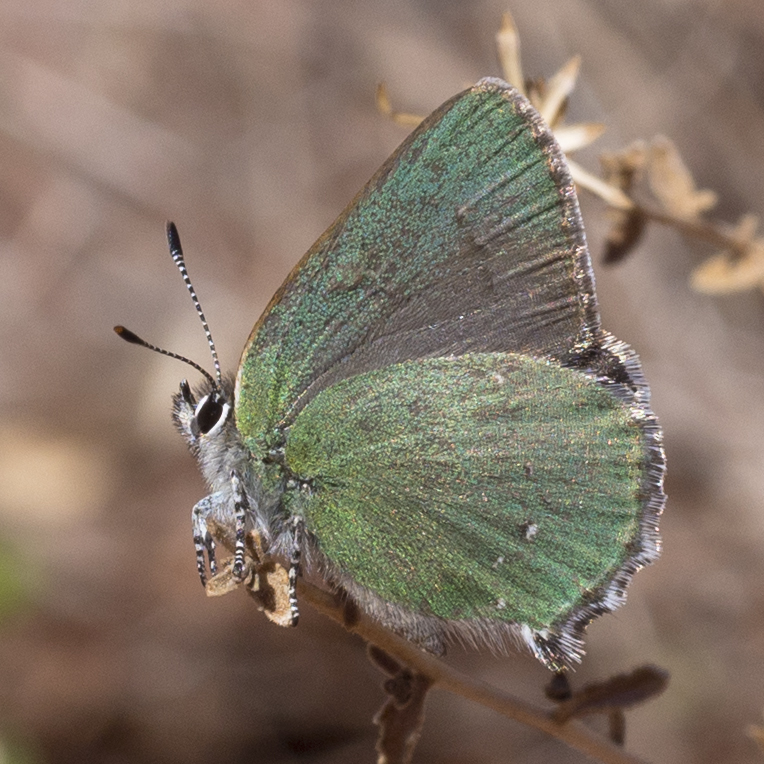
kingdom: Animalia
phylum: Arthropoda
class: Insecta
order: Lepidoptera
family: Lycaenidae
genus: Thecla
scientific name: Thecla sheridanii
